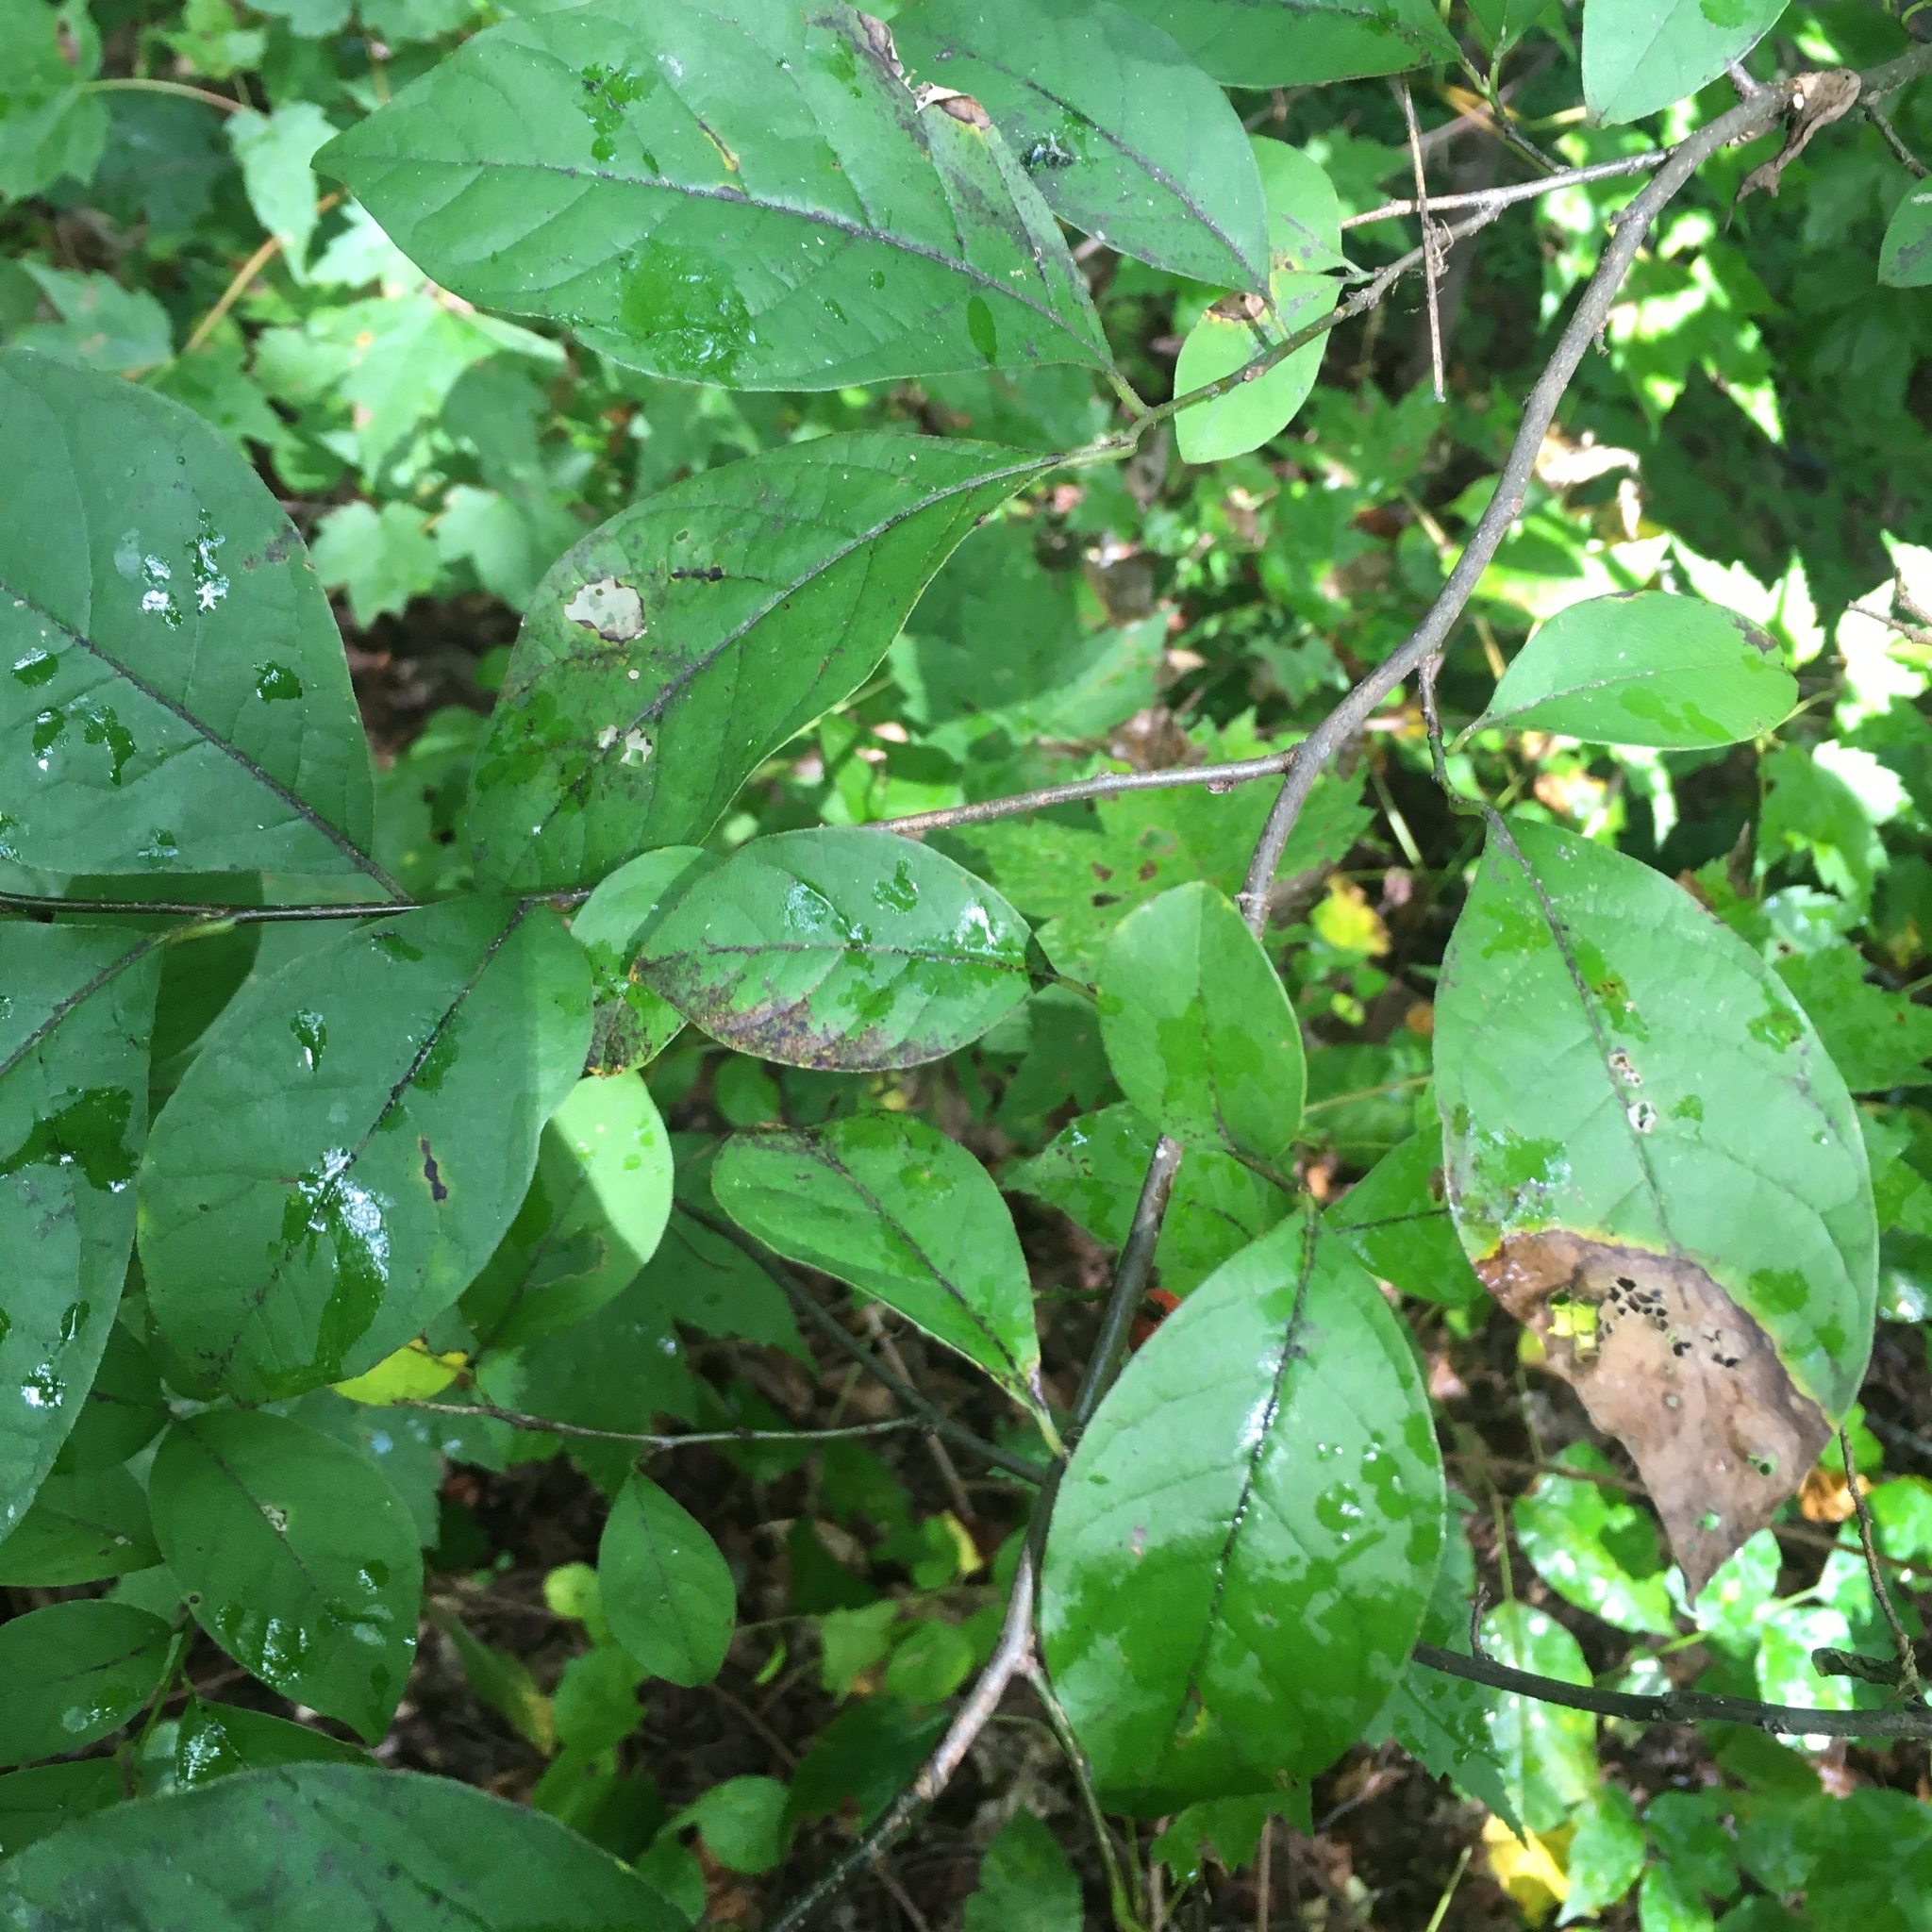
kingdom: Plantae
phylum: Tracheophyta
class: Magnoliopsida
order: Laurales
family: Lauraceae
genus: Lindera
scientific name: Lindera benzoin
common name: Spicebush
